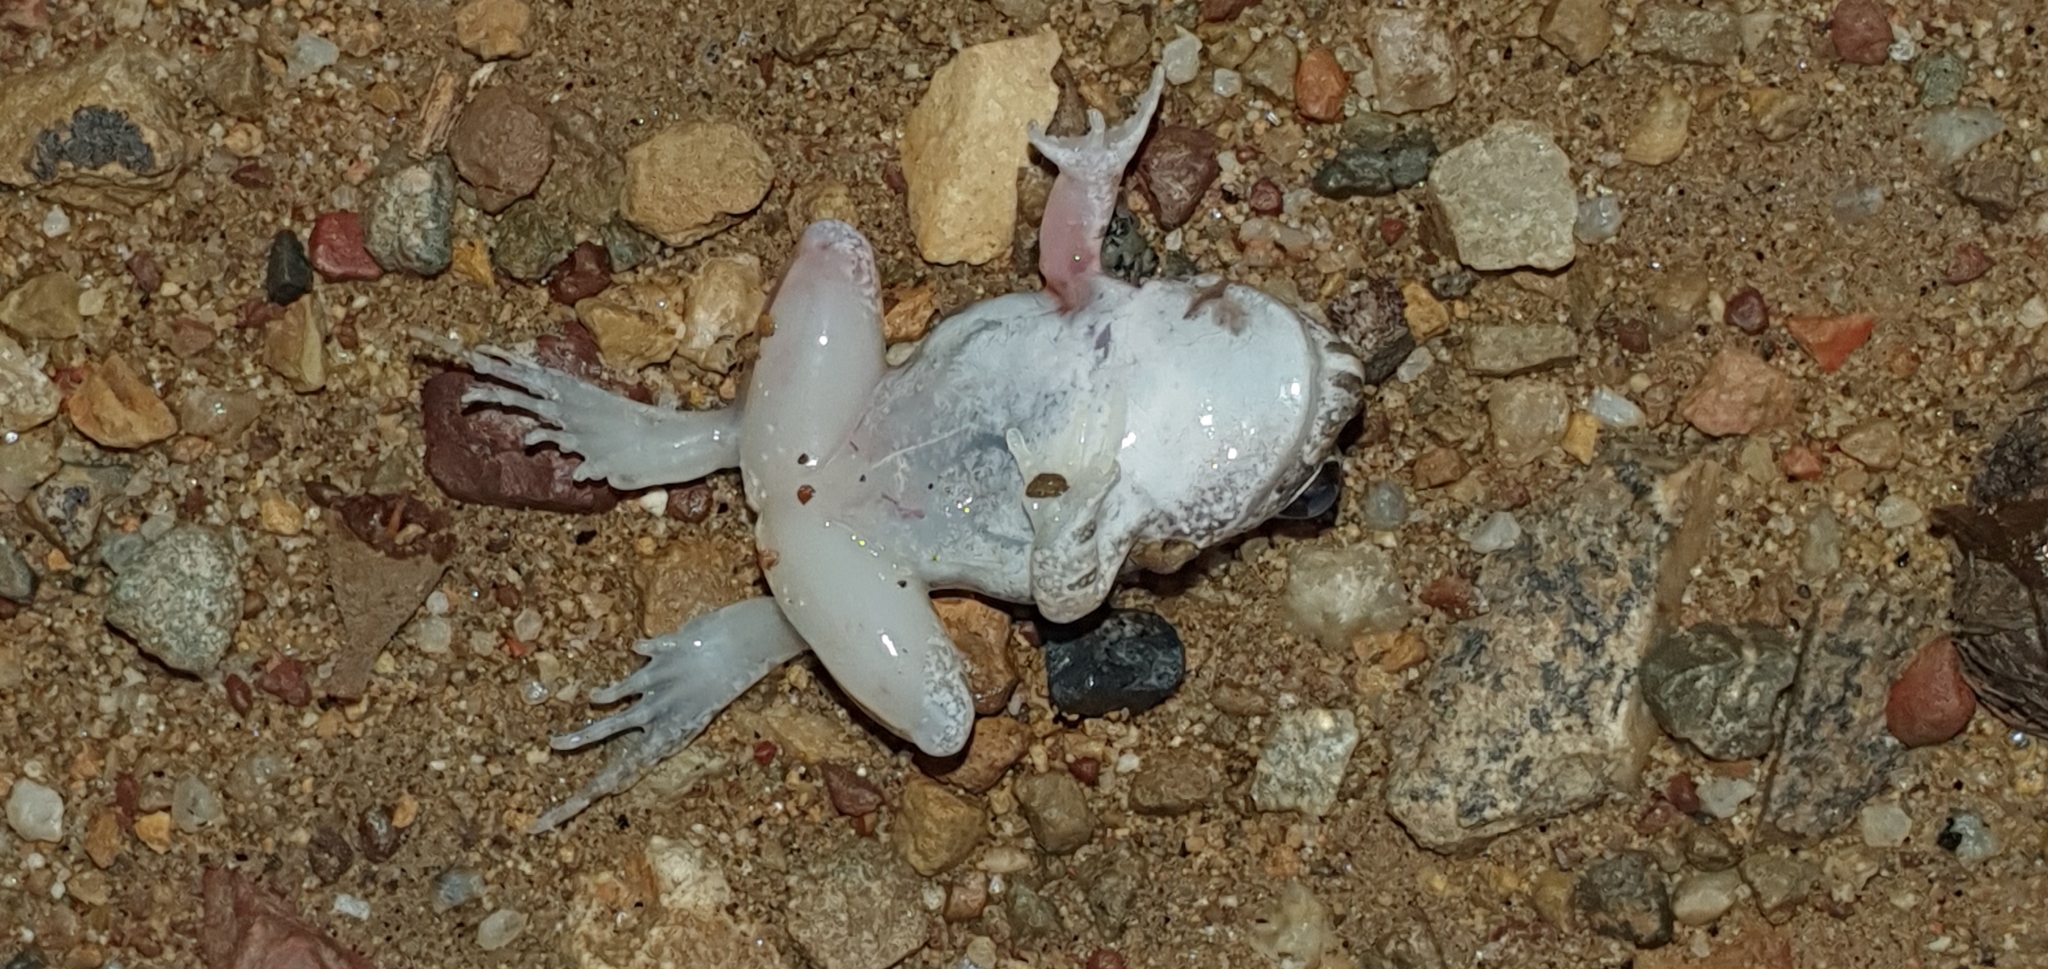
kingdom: Animalia
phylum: Chordata
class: Amphibia
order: Anura
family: Limnodynastidae
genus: Platyplectrum
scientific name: Platyplectrum ornatum
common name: Ornate burrowing frog
